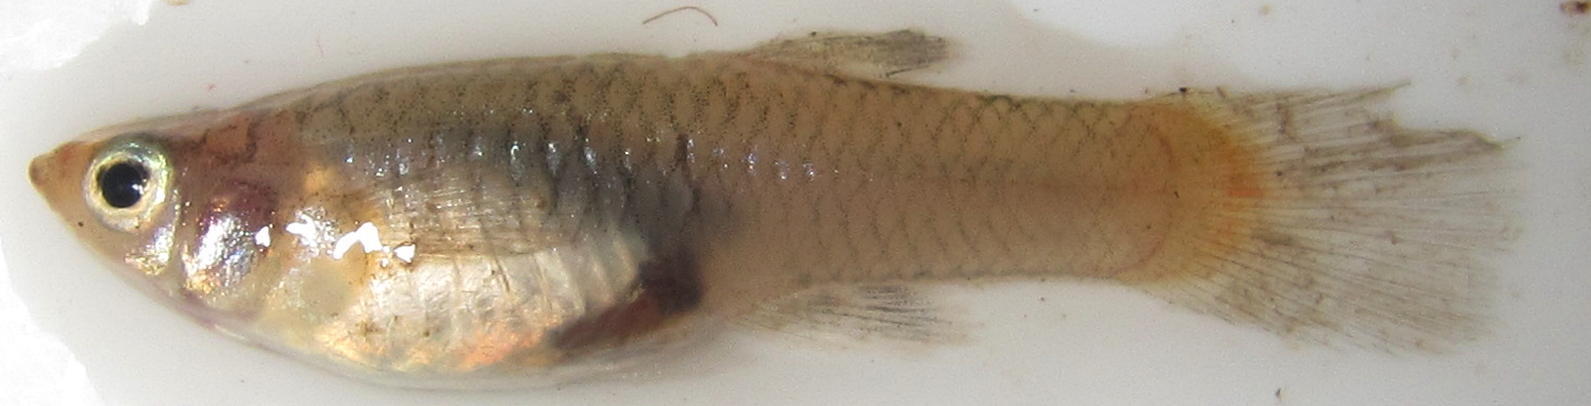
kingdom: Animalia
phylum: Chordata
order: Cyprinodontiformes
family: Poeciliidae
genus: Gambusia
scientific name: Gambusia affinis
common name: Mosquitofish
